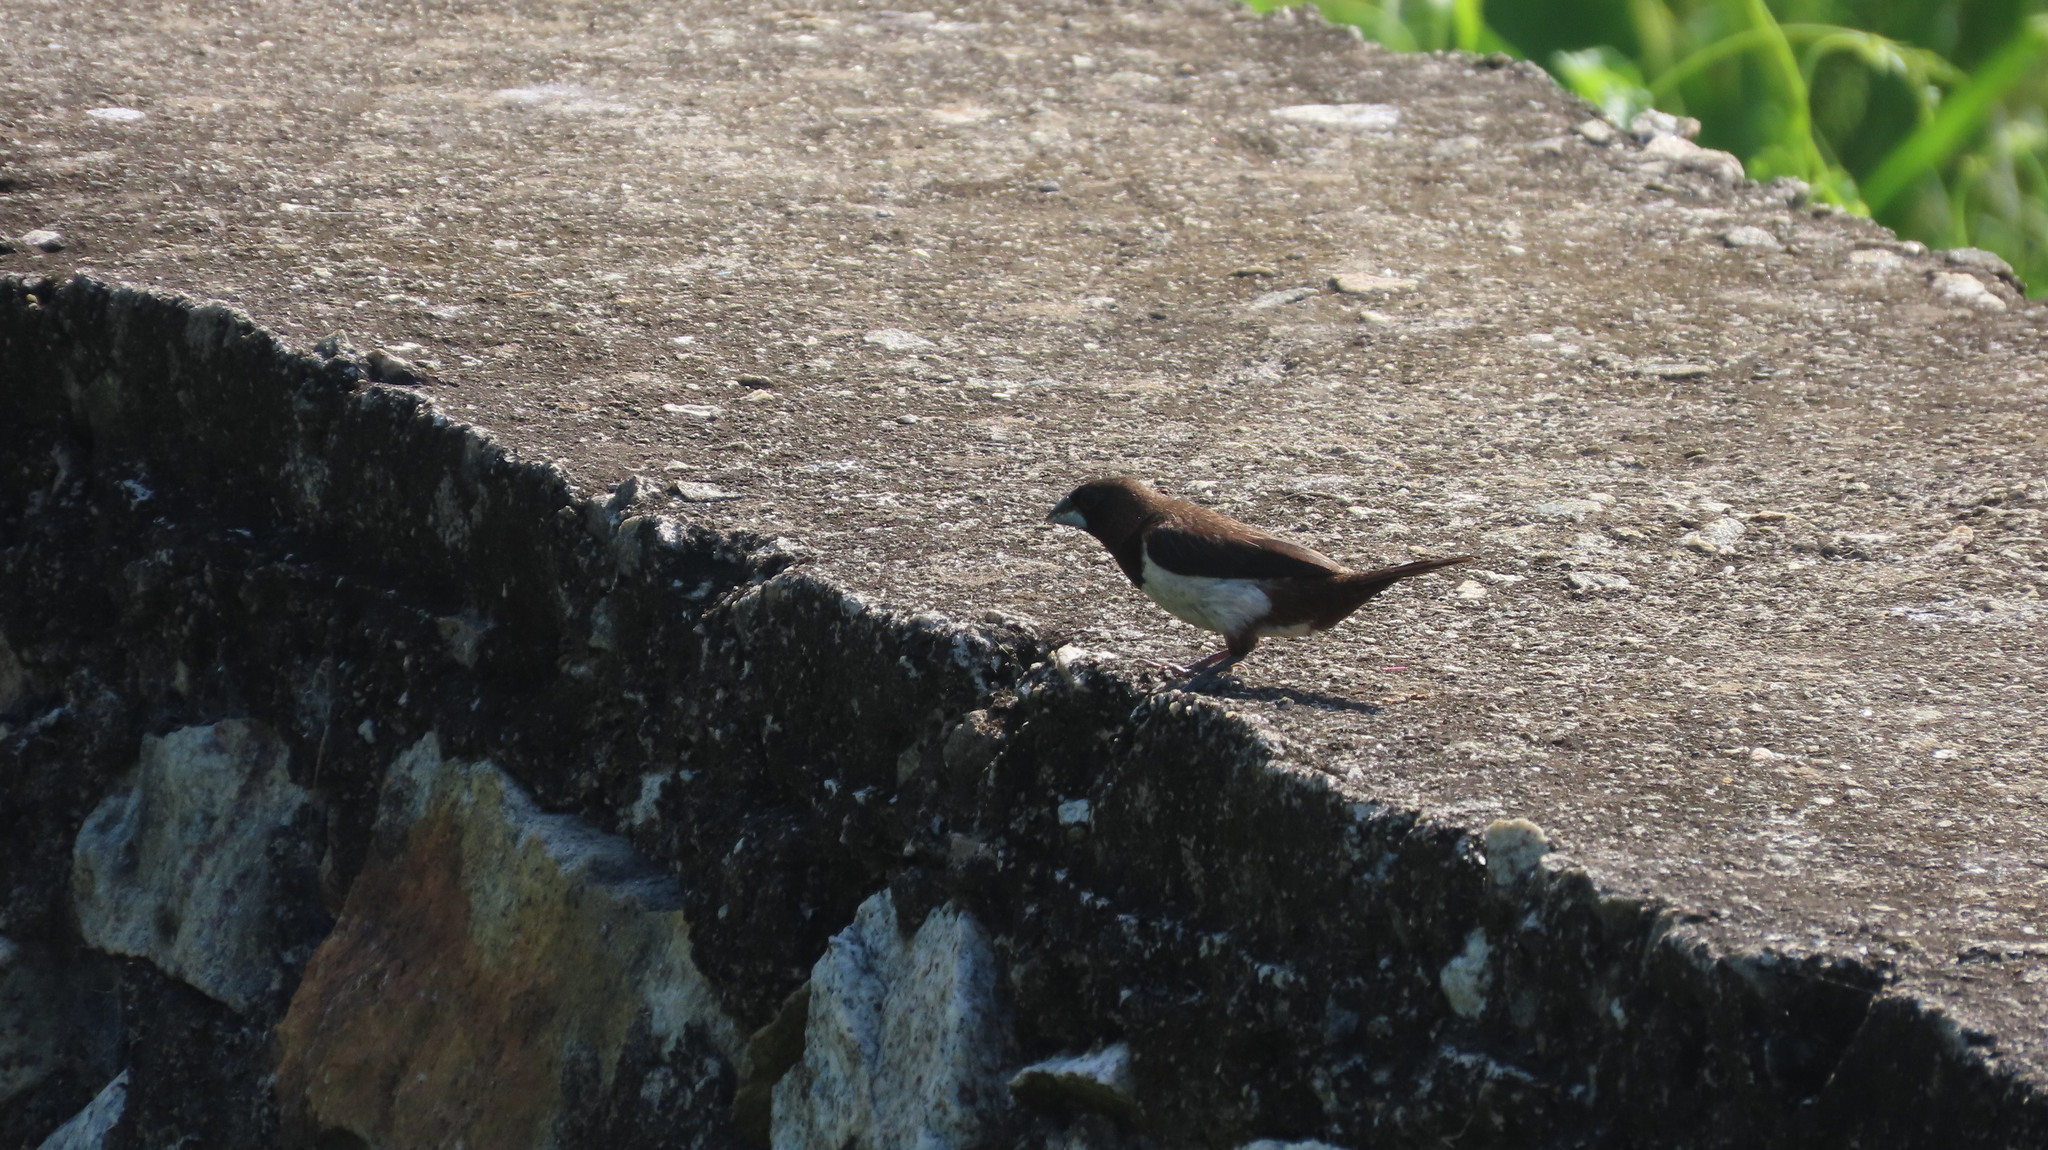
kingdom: Animalia
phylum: Chordata
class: Aves
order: Passeriformes
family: Estrildidae
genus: Lonchura
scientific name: Lonchura striata
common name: White-rumped munia
